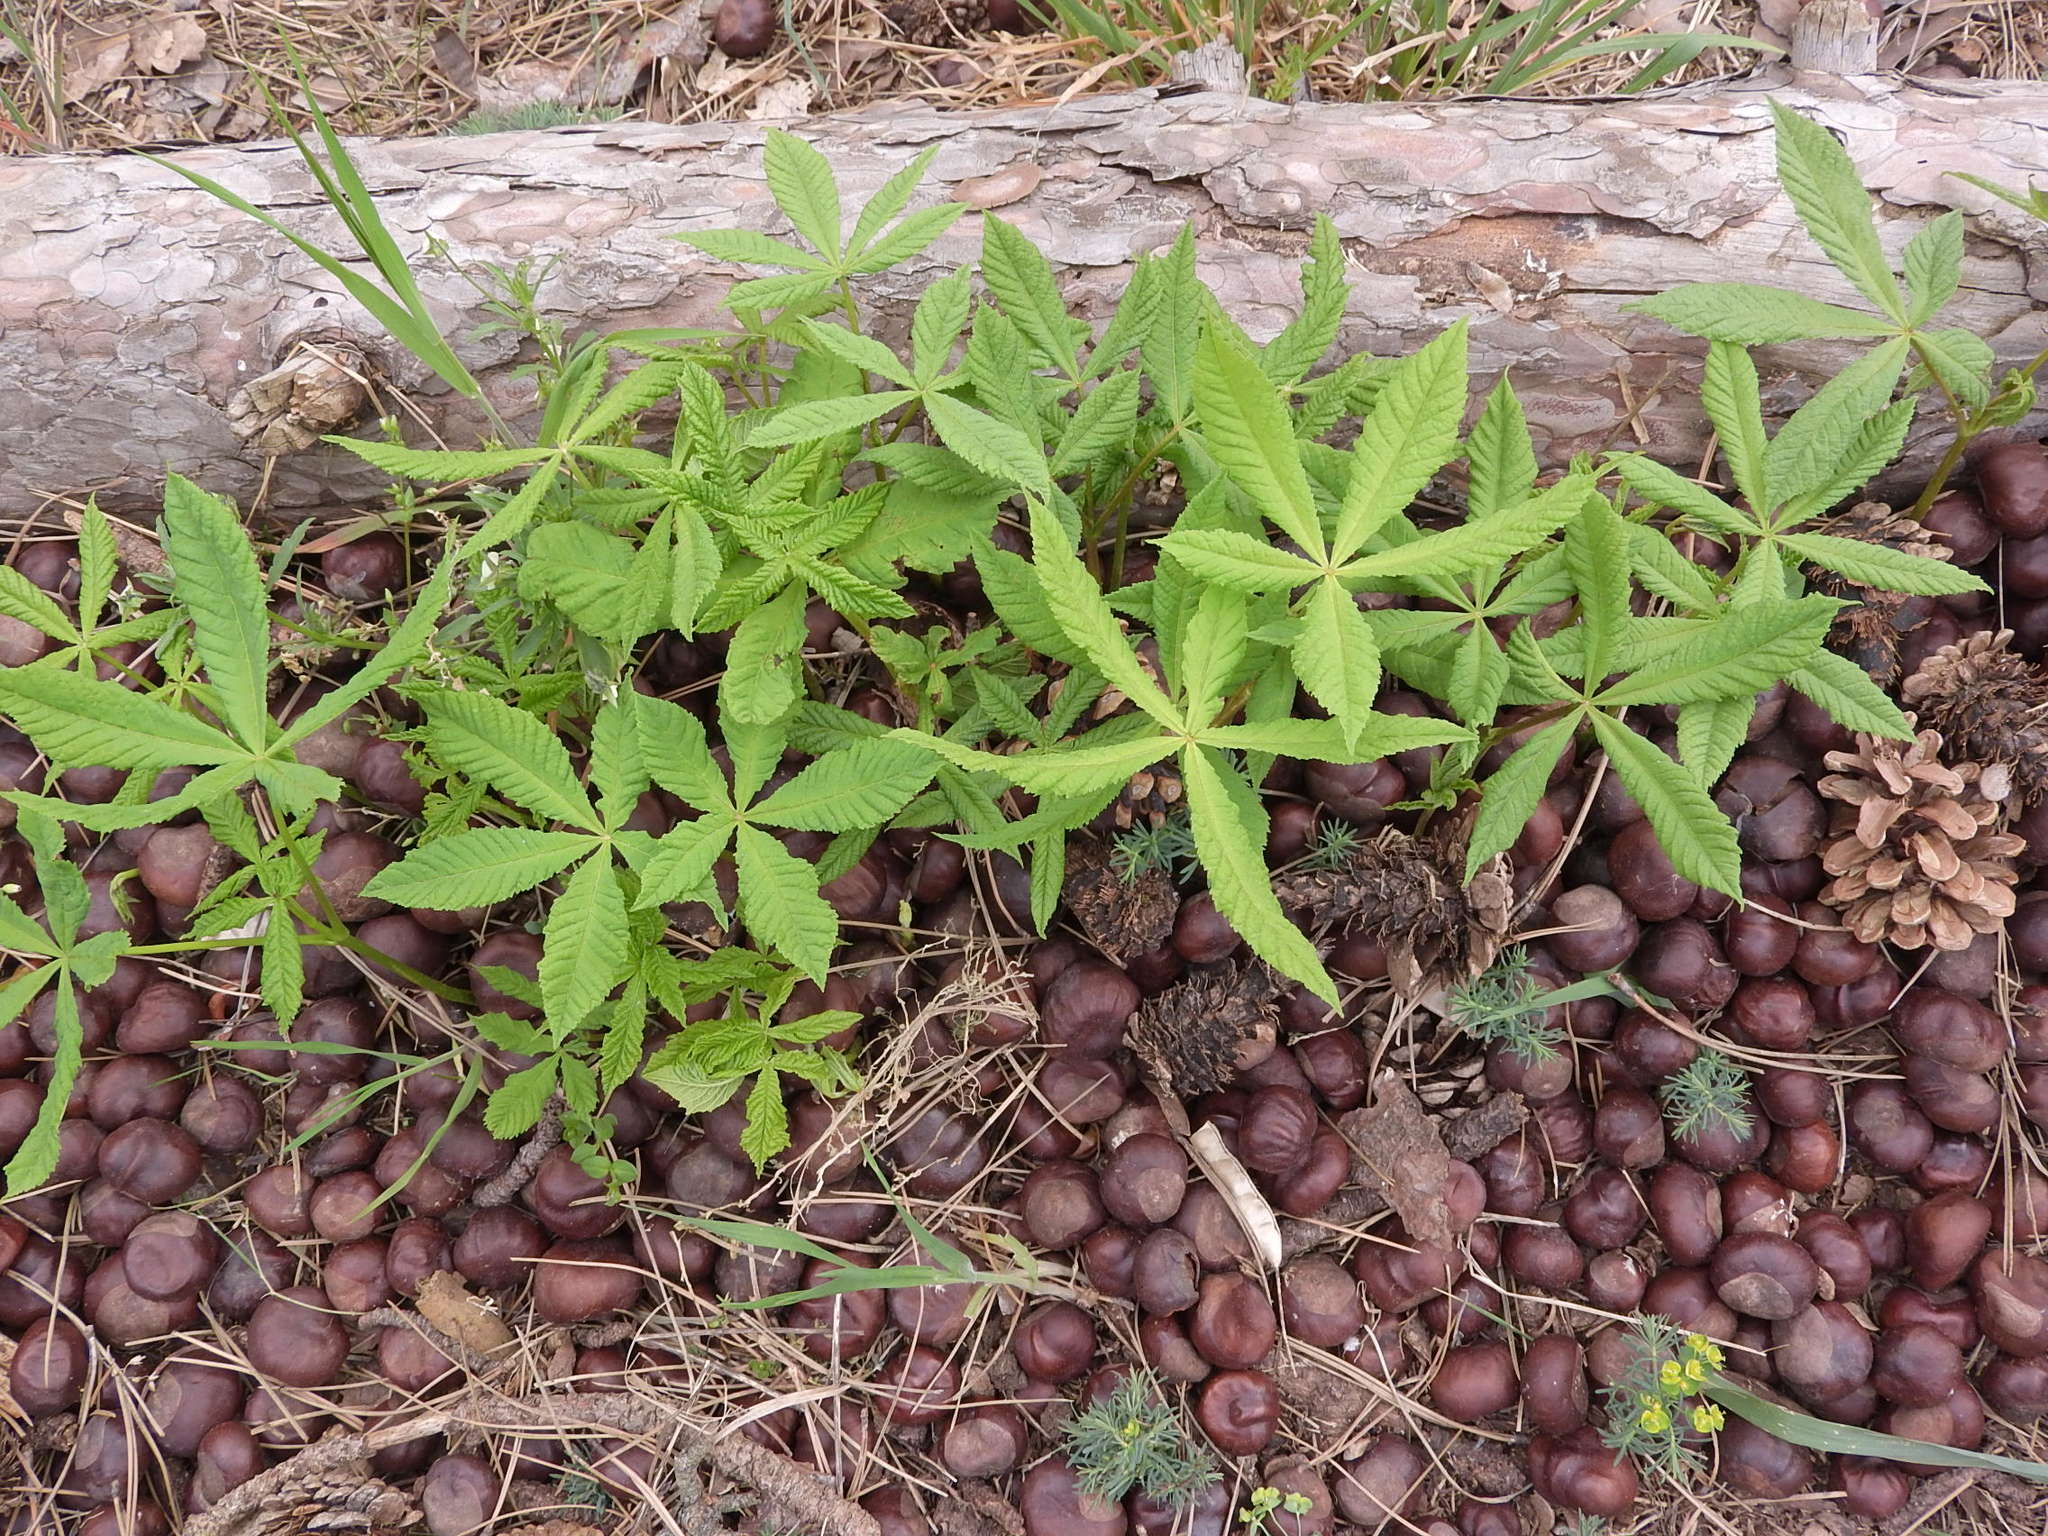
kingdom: Plantae
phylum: Tracheophyta
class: Magnoliopsida
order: Sapindales
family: Sapindaceae
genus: Aesculus
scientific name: Aesculus hippocastanum
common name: Horse-chestnut
